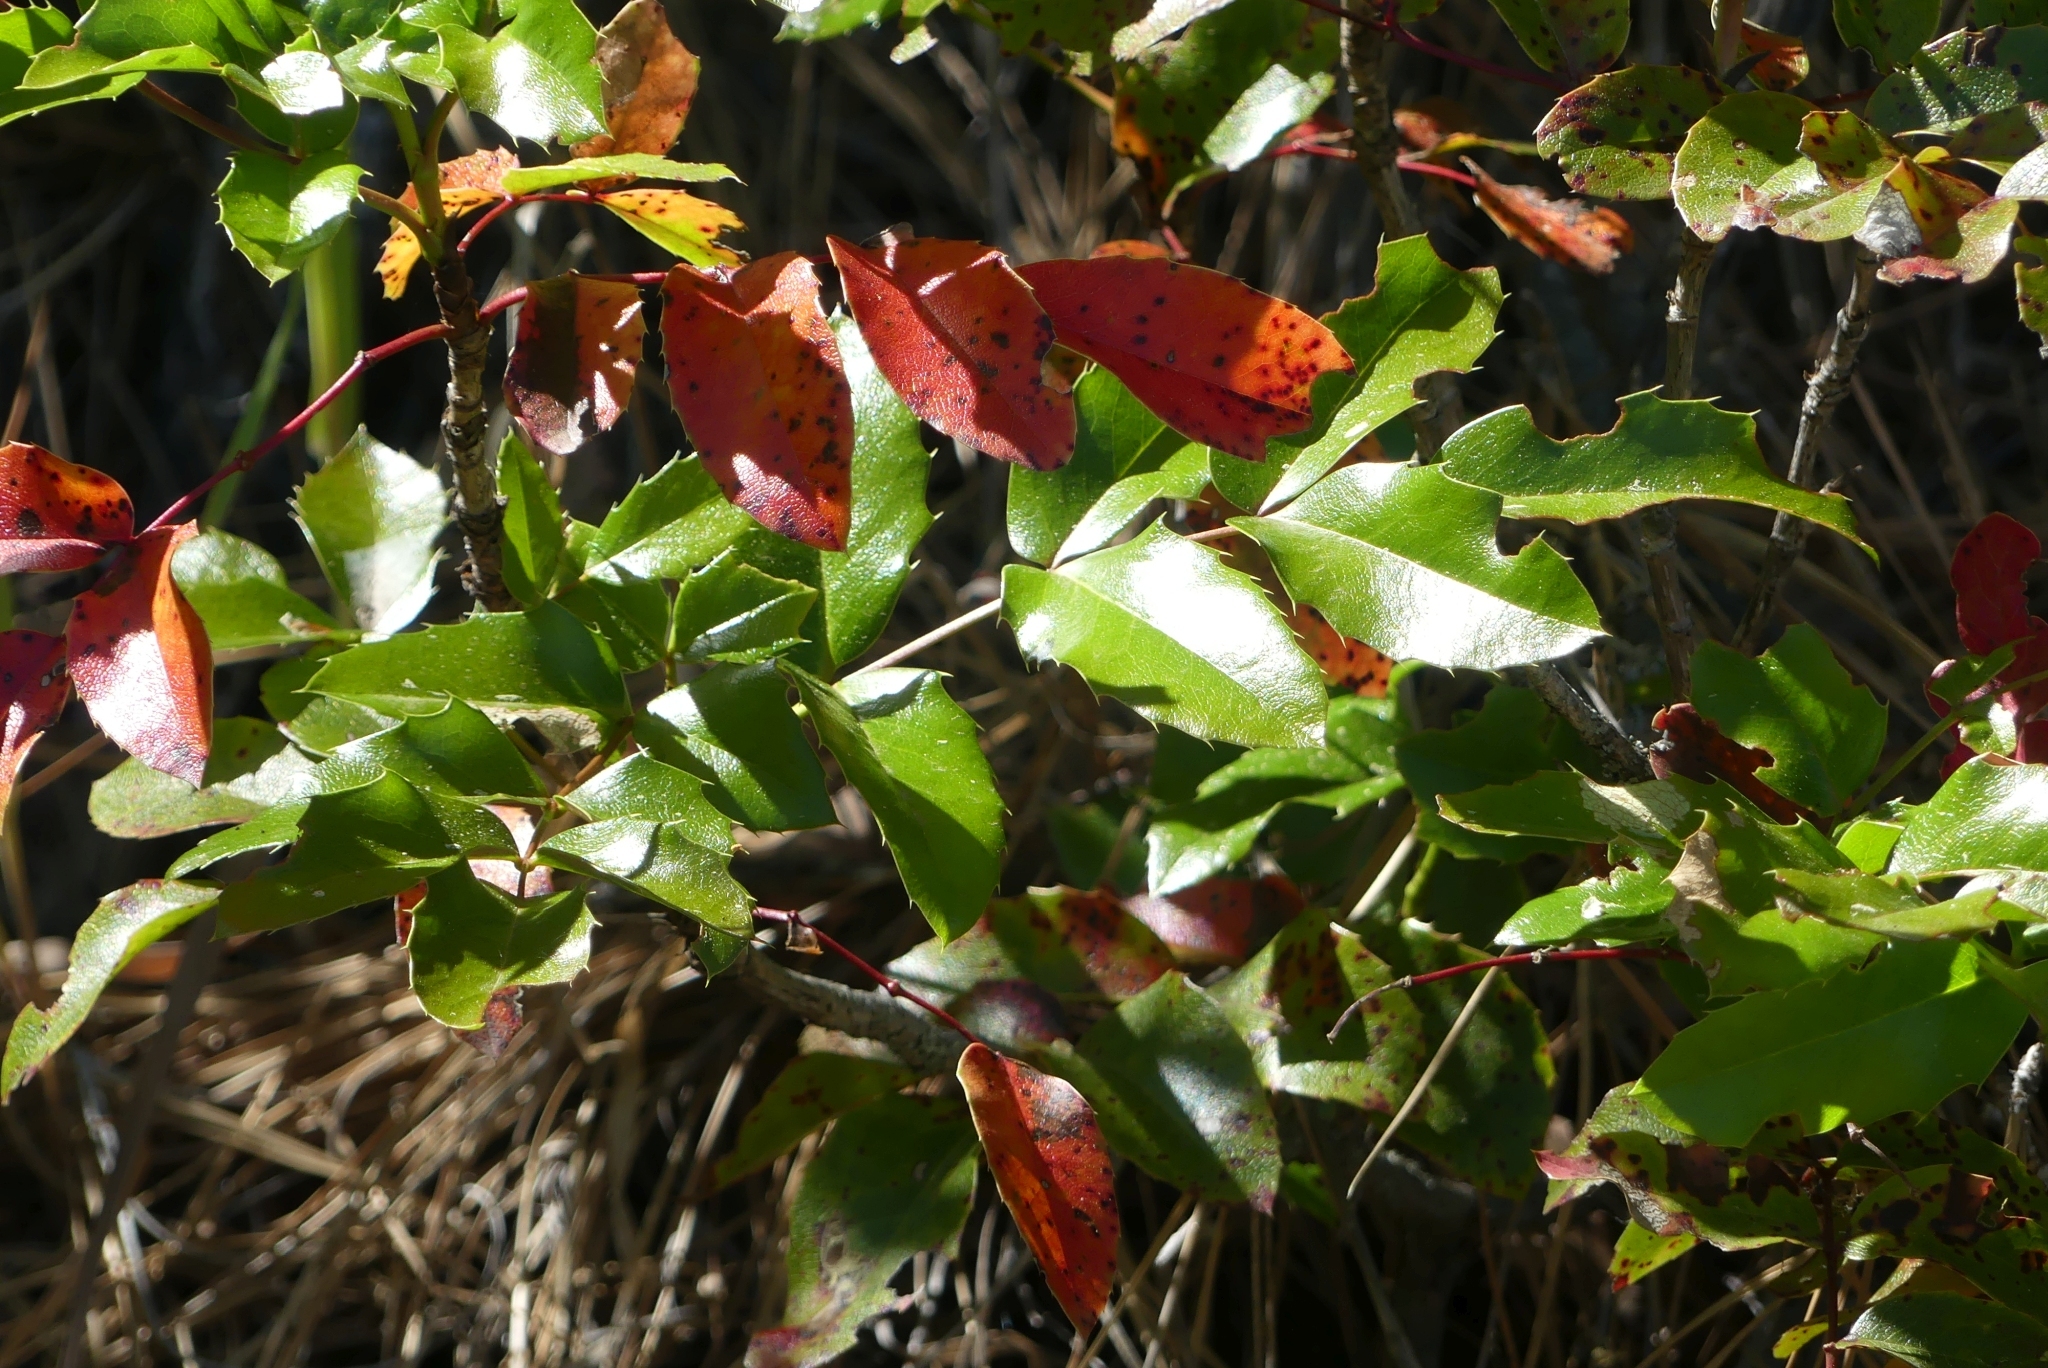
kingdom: Plantae
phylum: Tracheophyta
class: Magnoliopsida
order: Ranunculales
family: Berberidaceae
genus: Mahonia
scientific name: Mahonia aquifolium
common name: Oregon-grape
